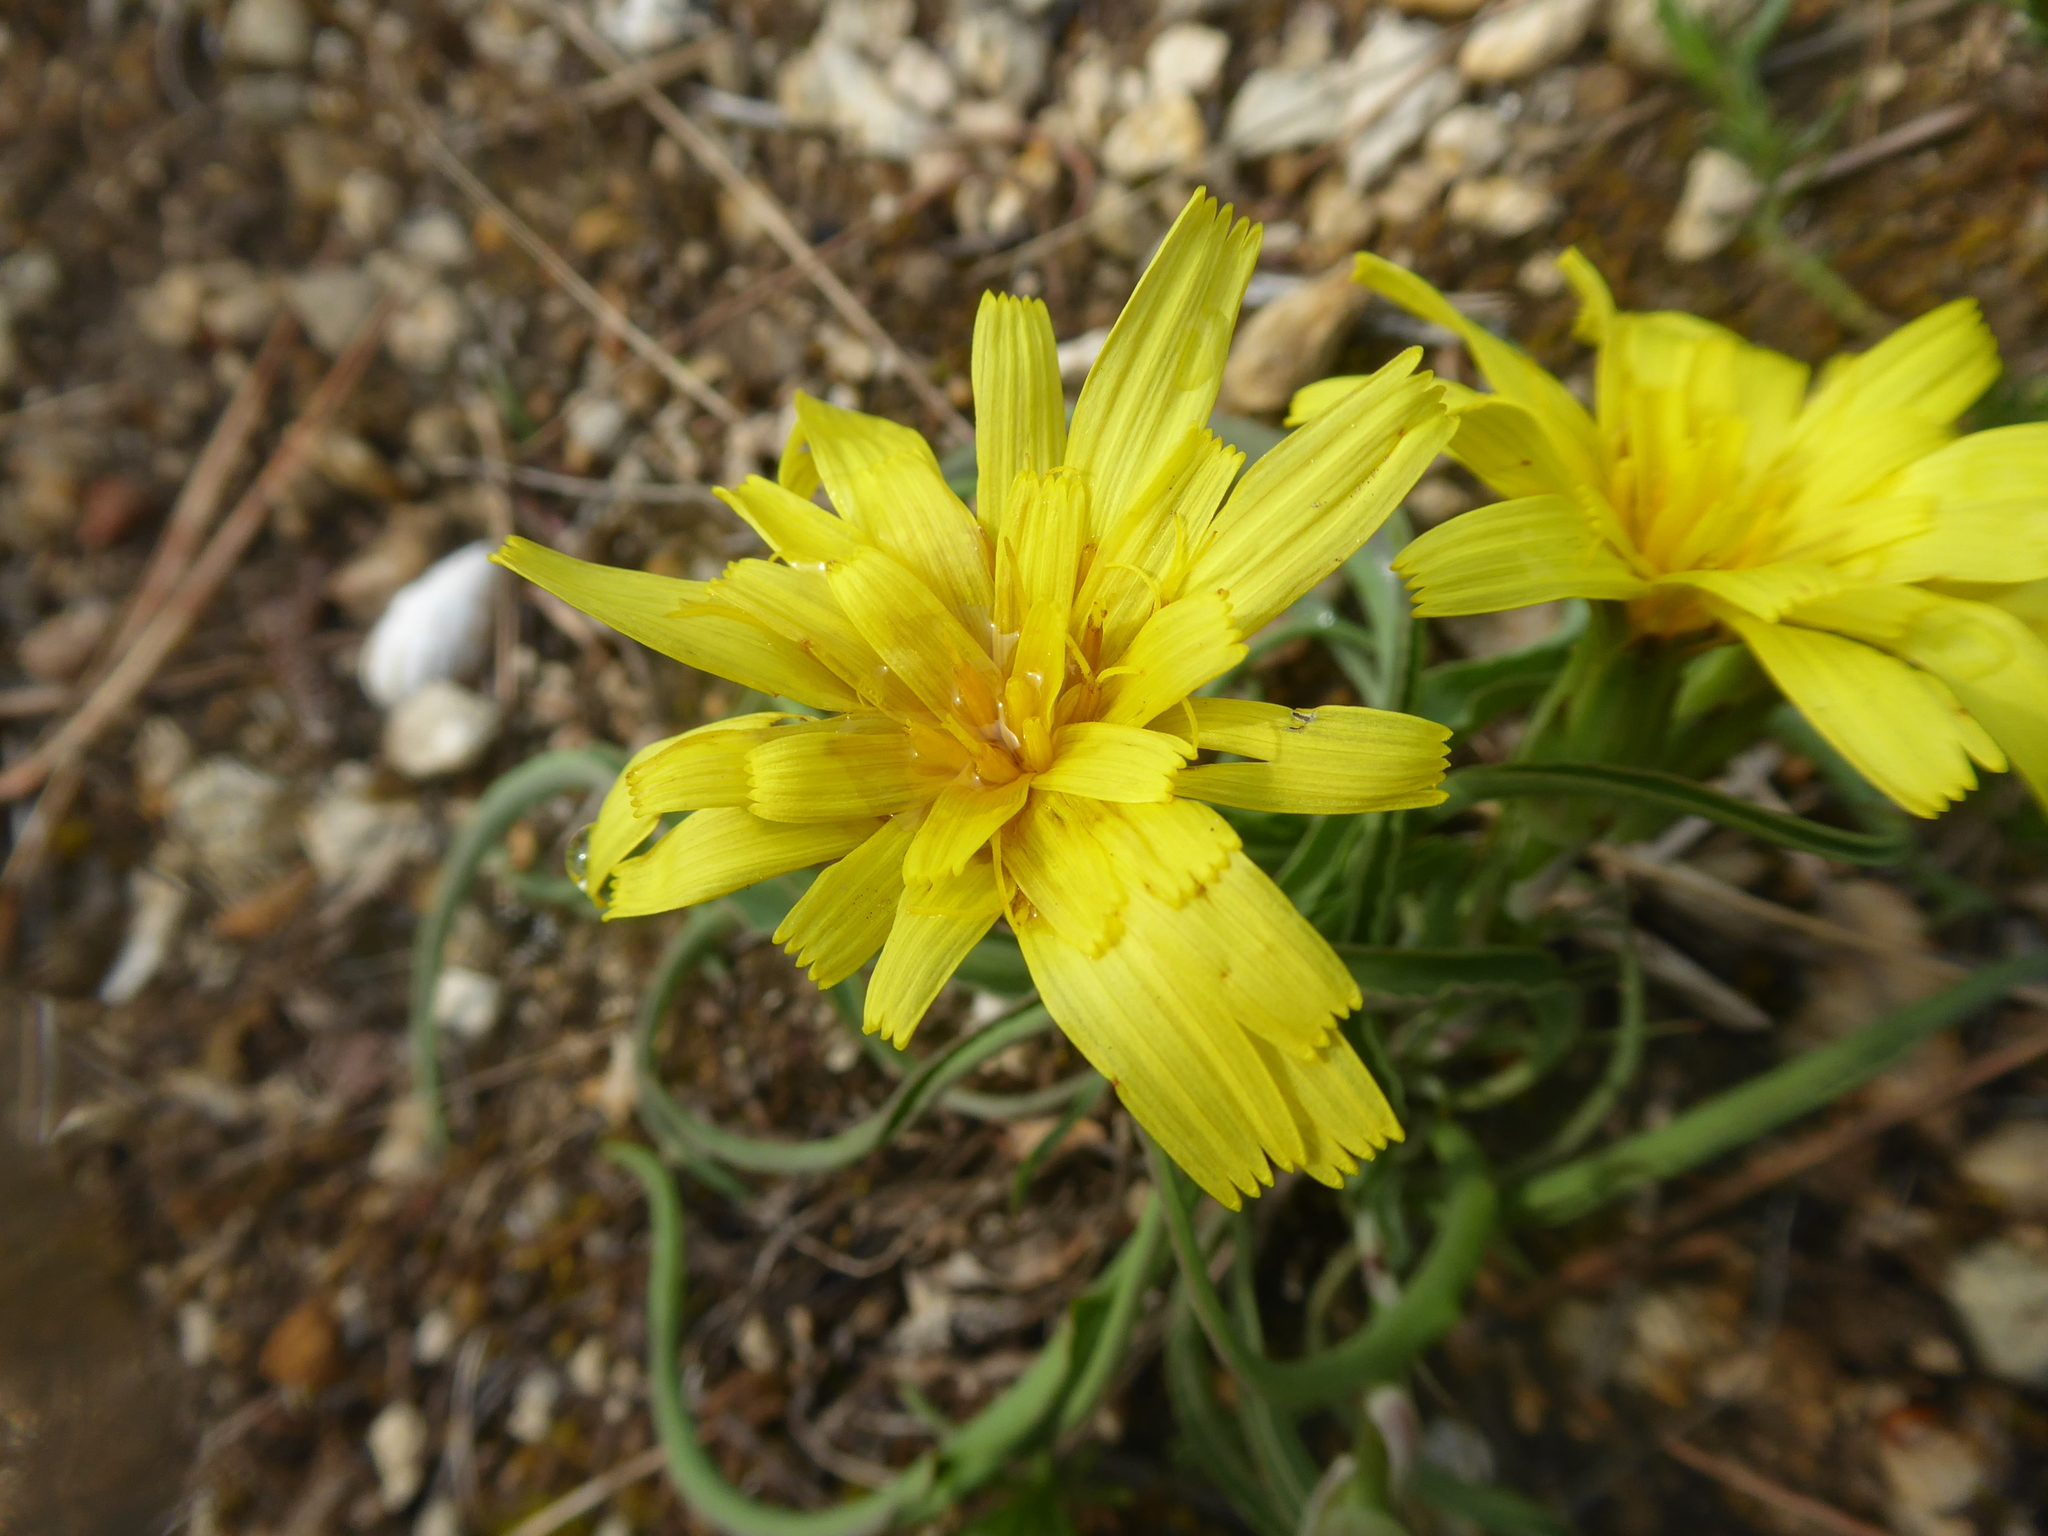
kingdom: Plantae
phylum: Tracheophyta
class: Magnoliopsida
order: Asterales
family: Asteraceae
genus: Takhtajaniantha
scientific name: Takhtajaniantha austriaca
